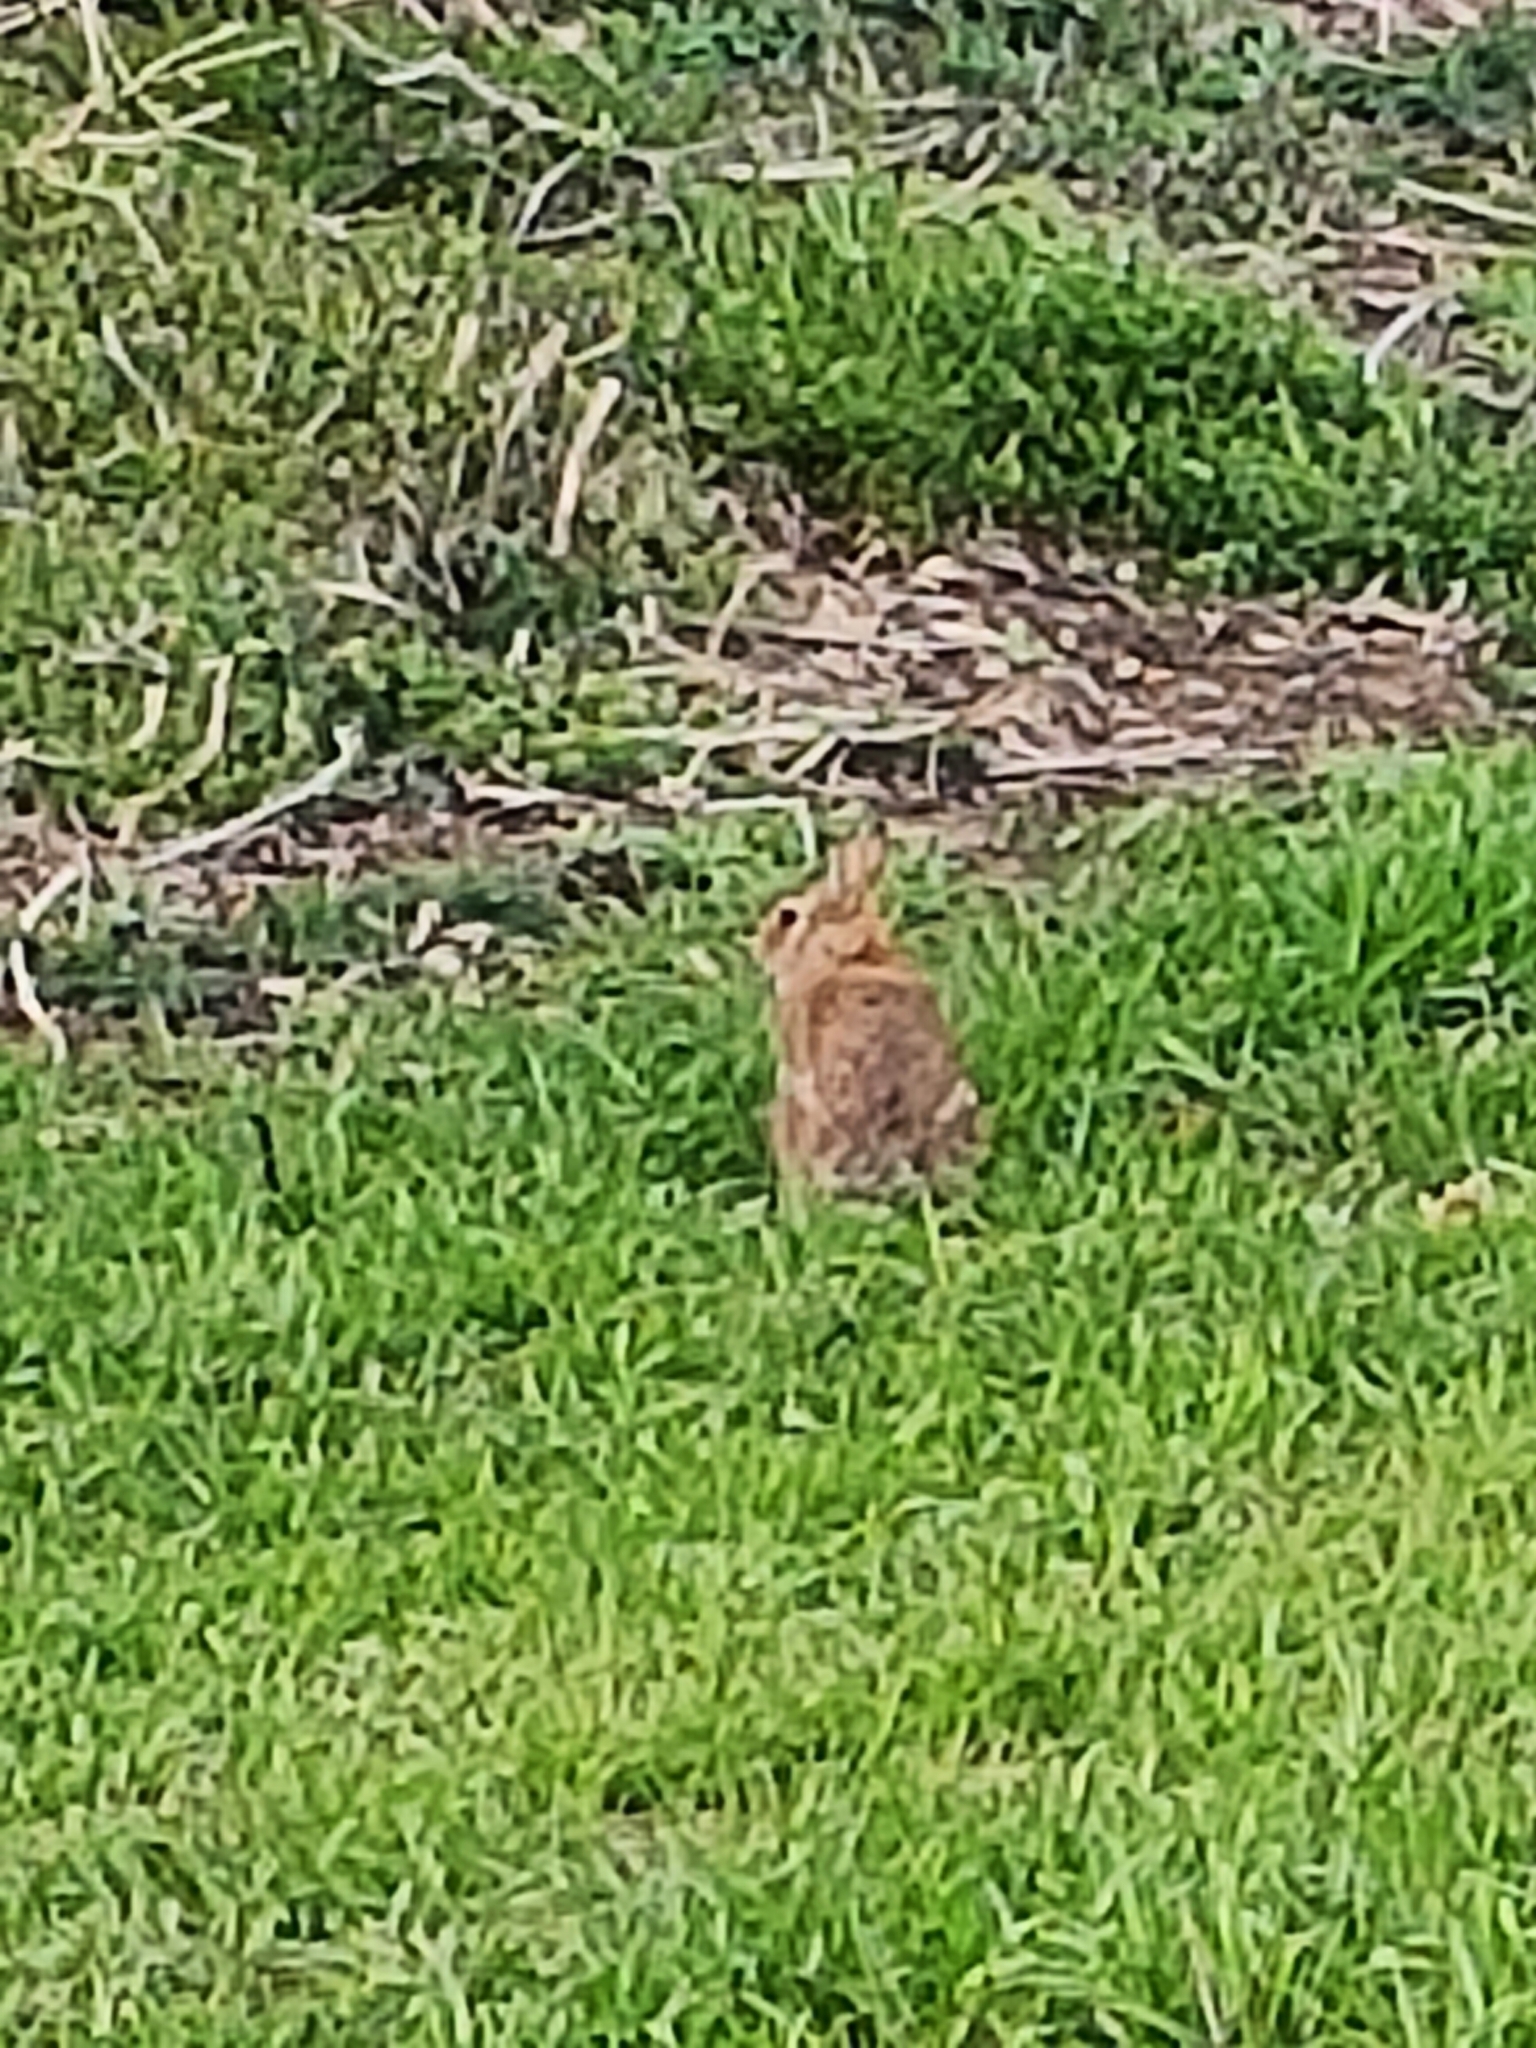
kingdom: Animalia
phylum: Chordata
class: Mammalia
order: Lagomorpha
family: Leporidae
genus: Sylvilagus
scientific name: Sylvilagus floridanus
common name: Eastern cottontail
